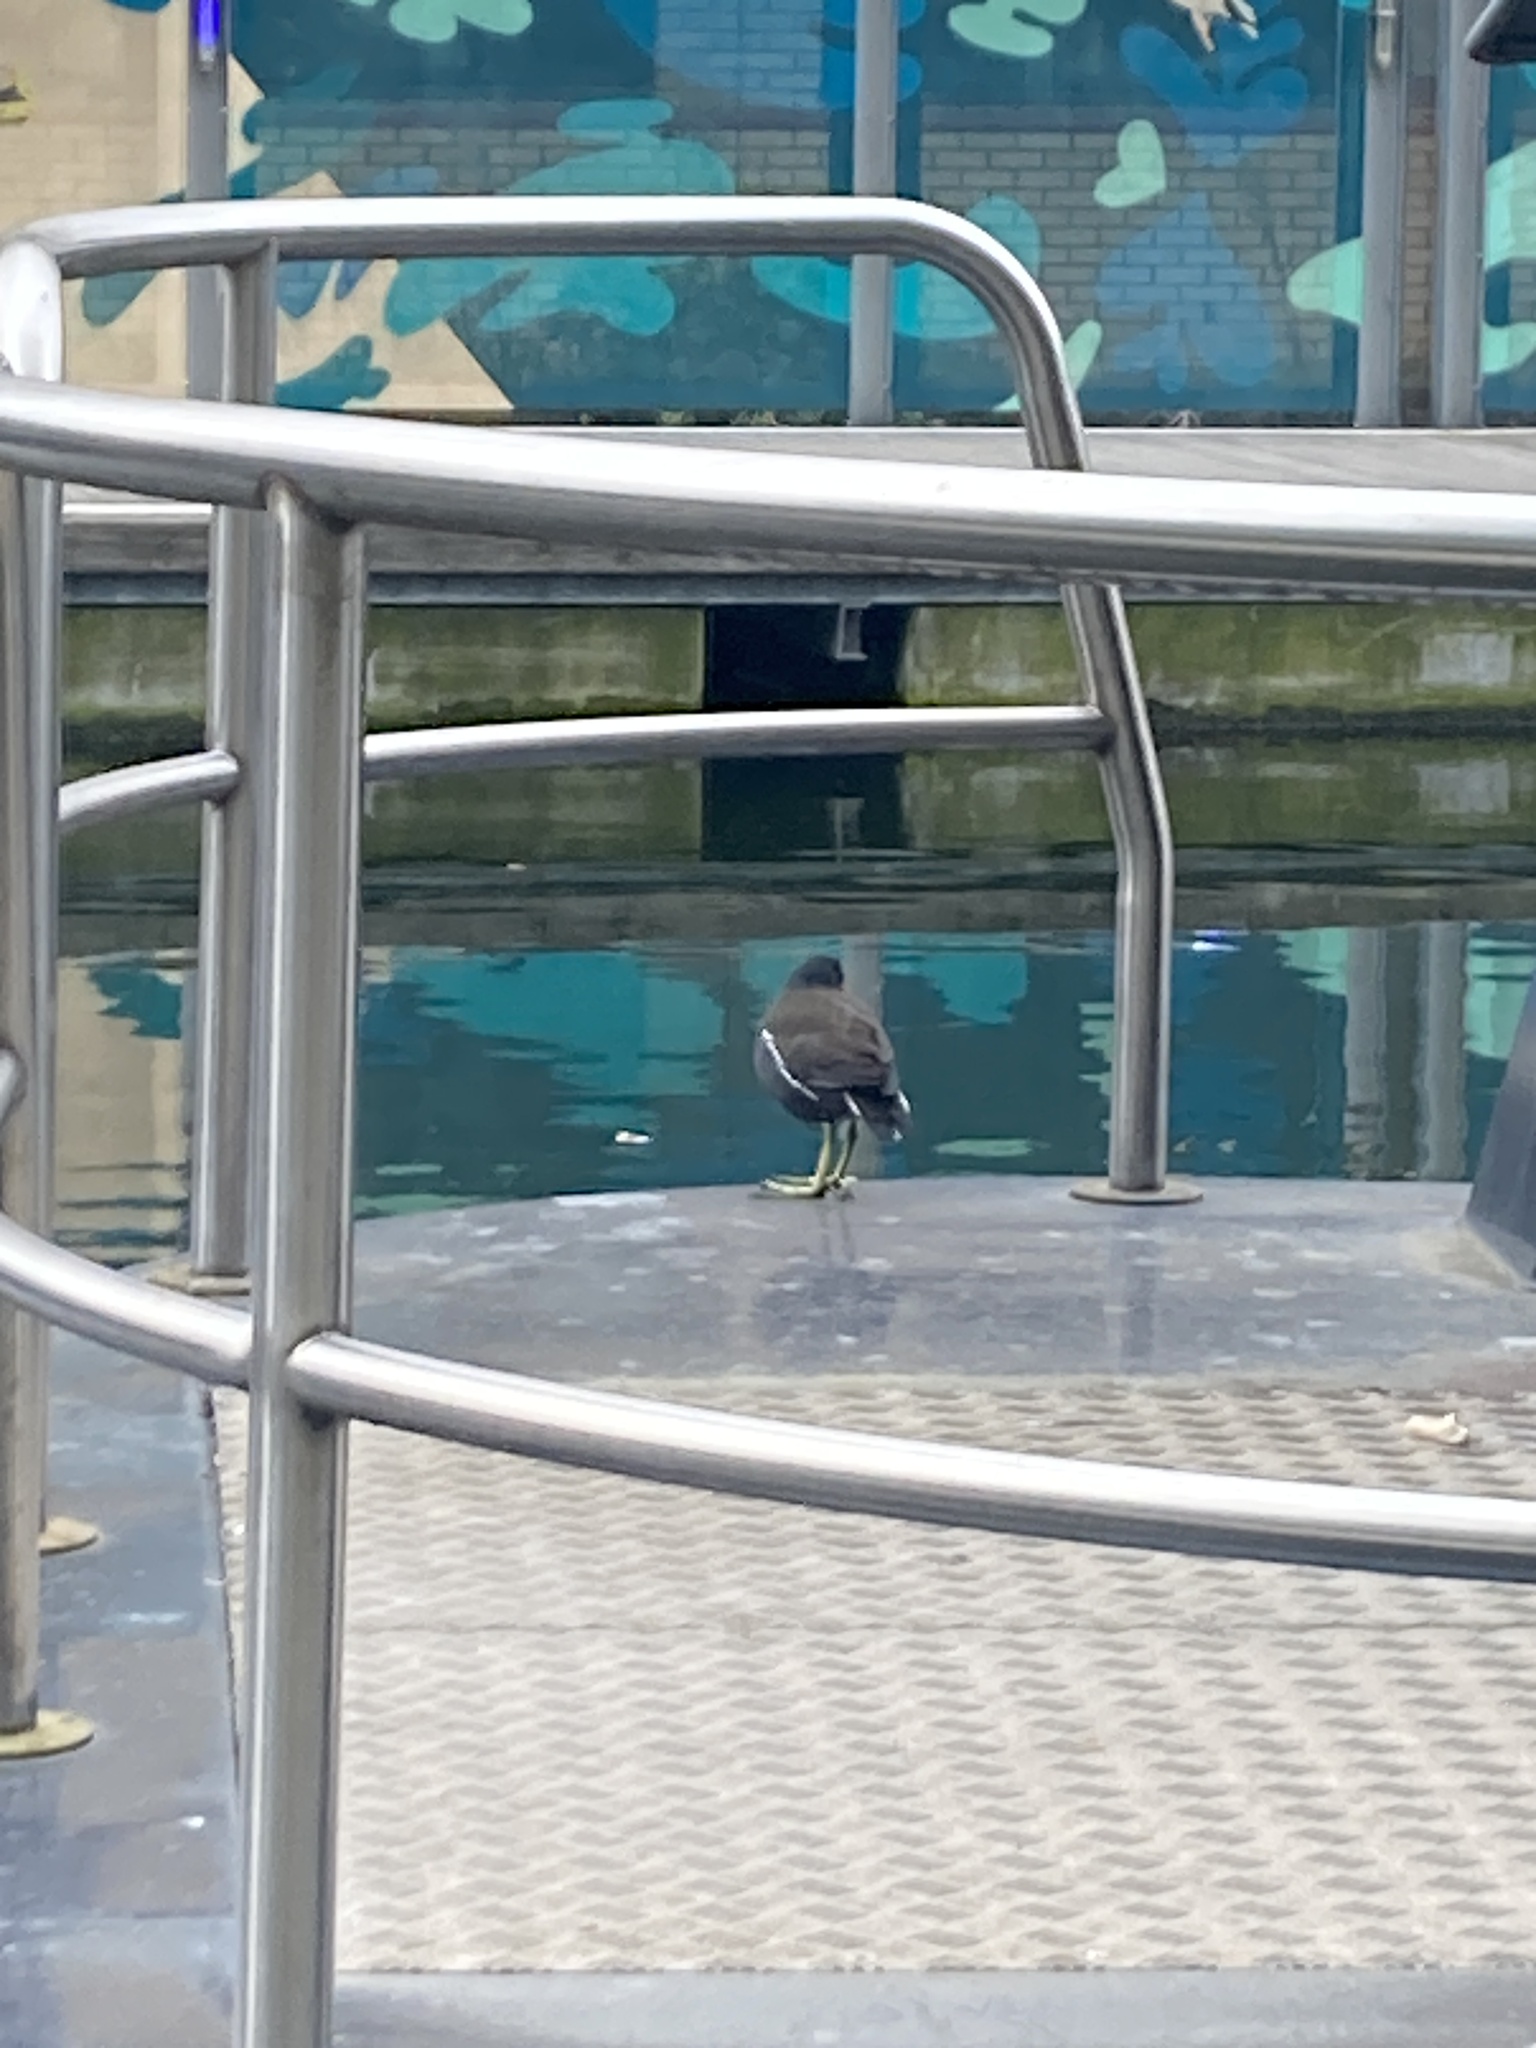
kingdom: Animalia
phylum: Chordata
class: Aves
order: Gruiformes
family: Rallidae
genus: Gallinula
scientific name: Gallinula chloropus
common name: Common moorhen
